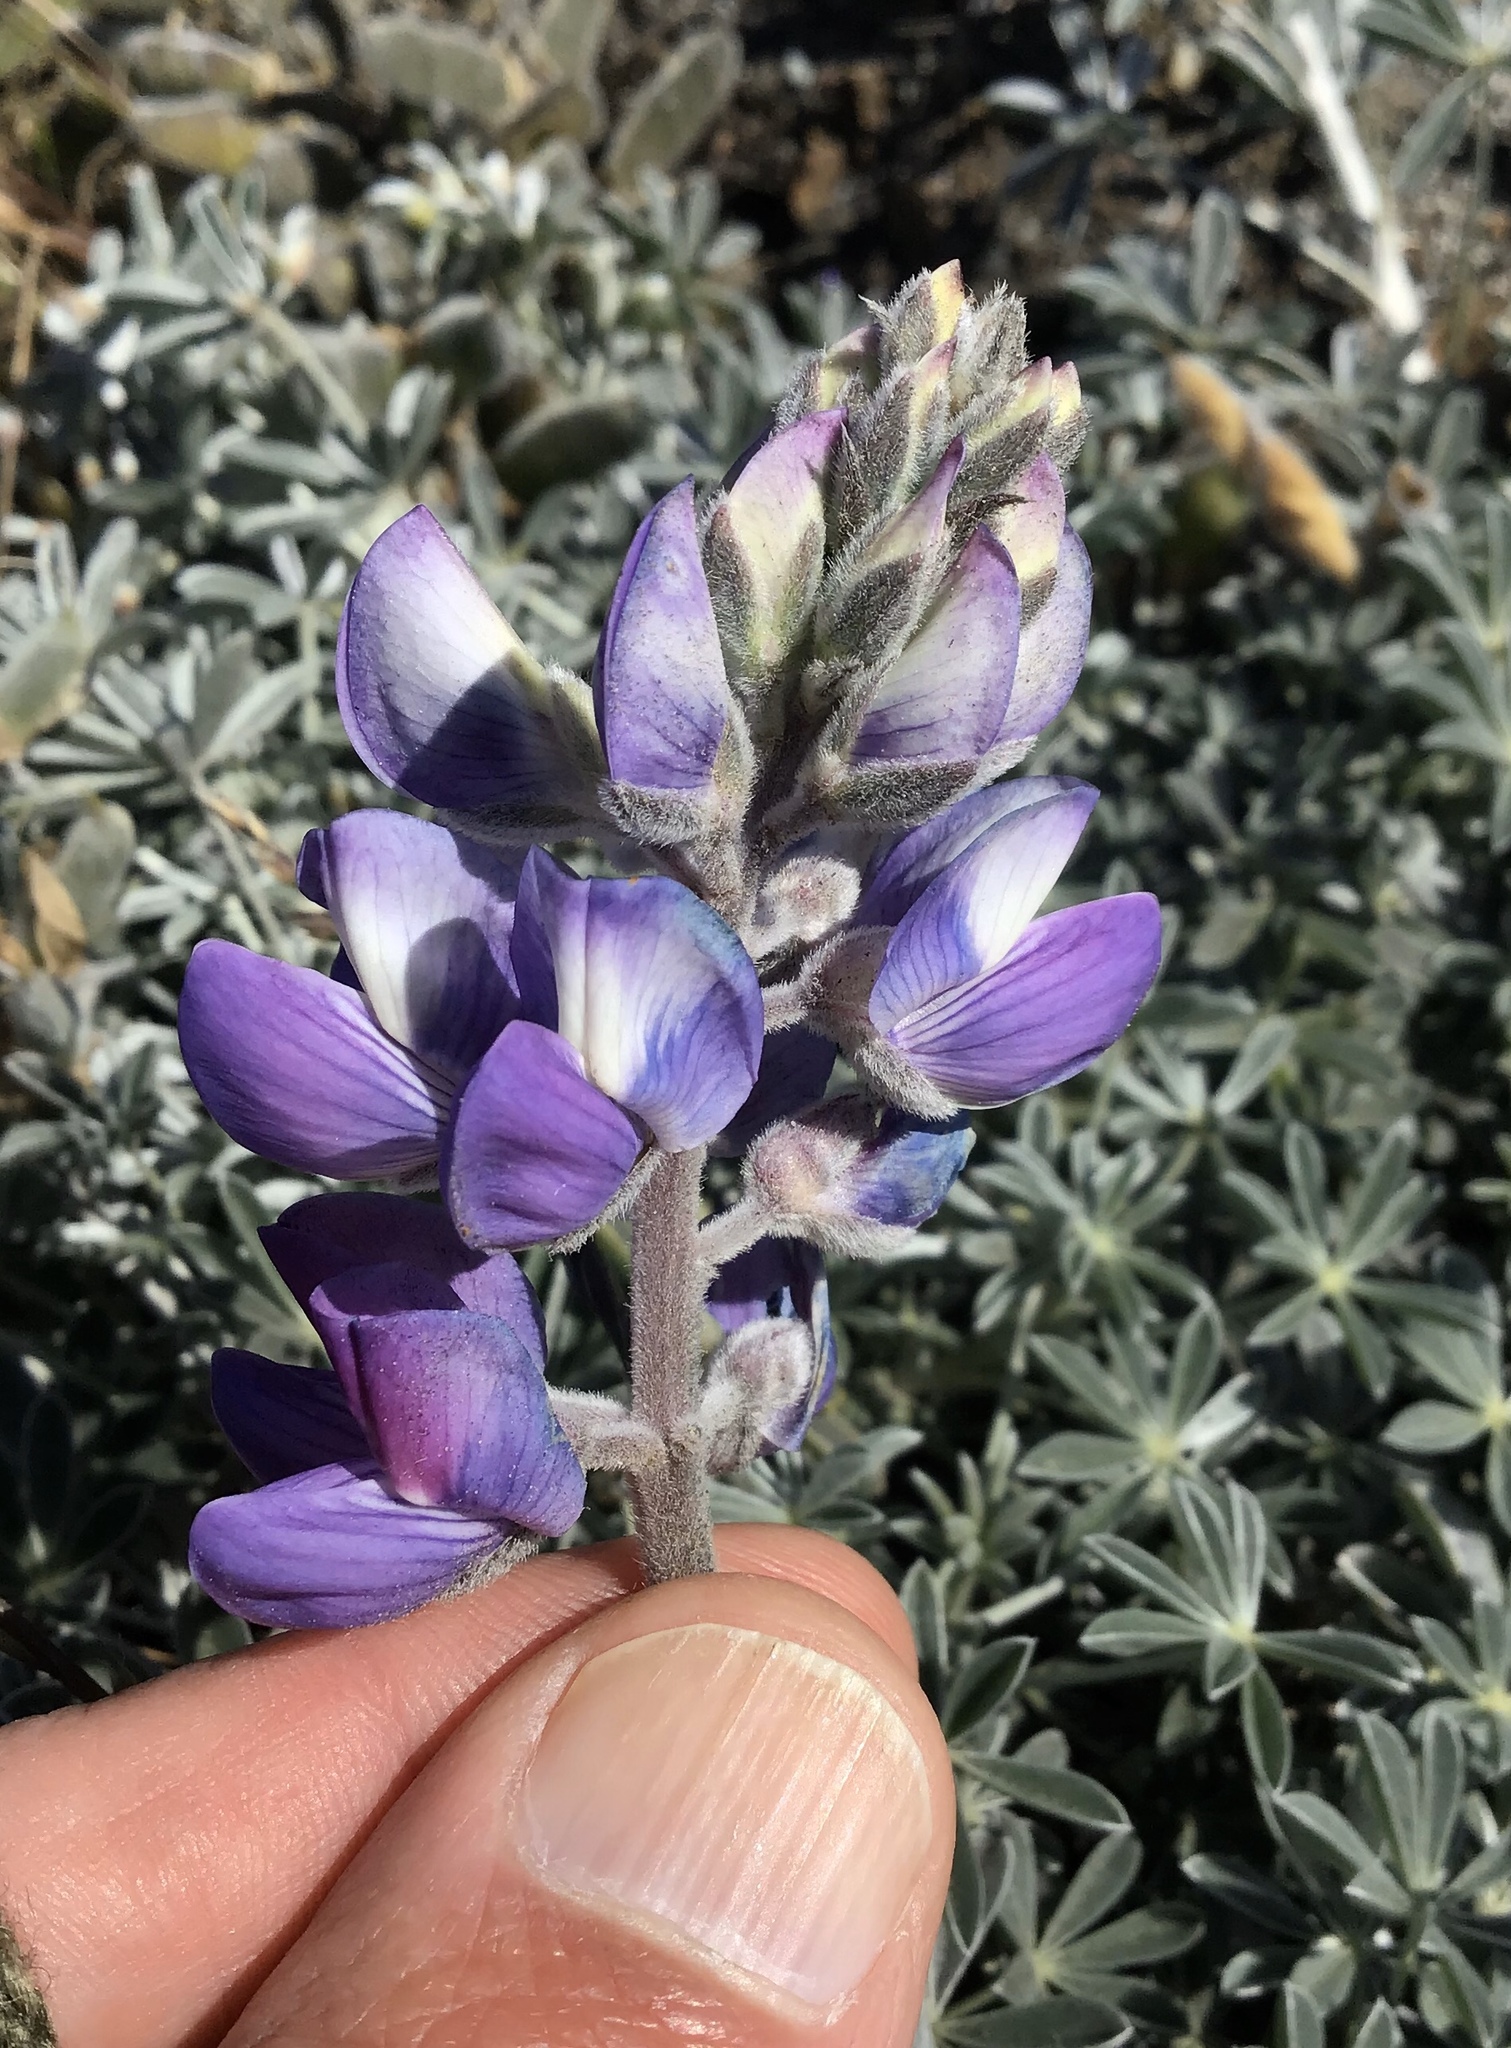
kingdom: Plantae
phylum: Tracheophyta
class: Magnoliopsida
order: Fabales
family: Fabaceae
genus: Lupinus
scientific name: Lupinus albifrons
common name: Foothill lupine
